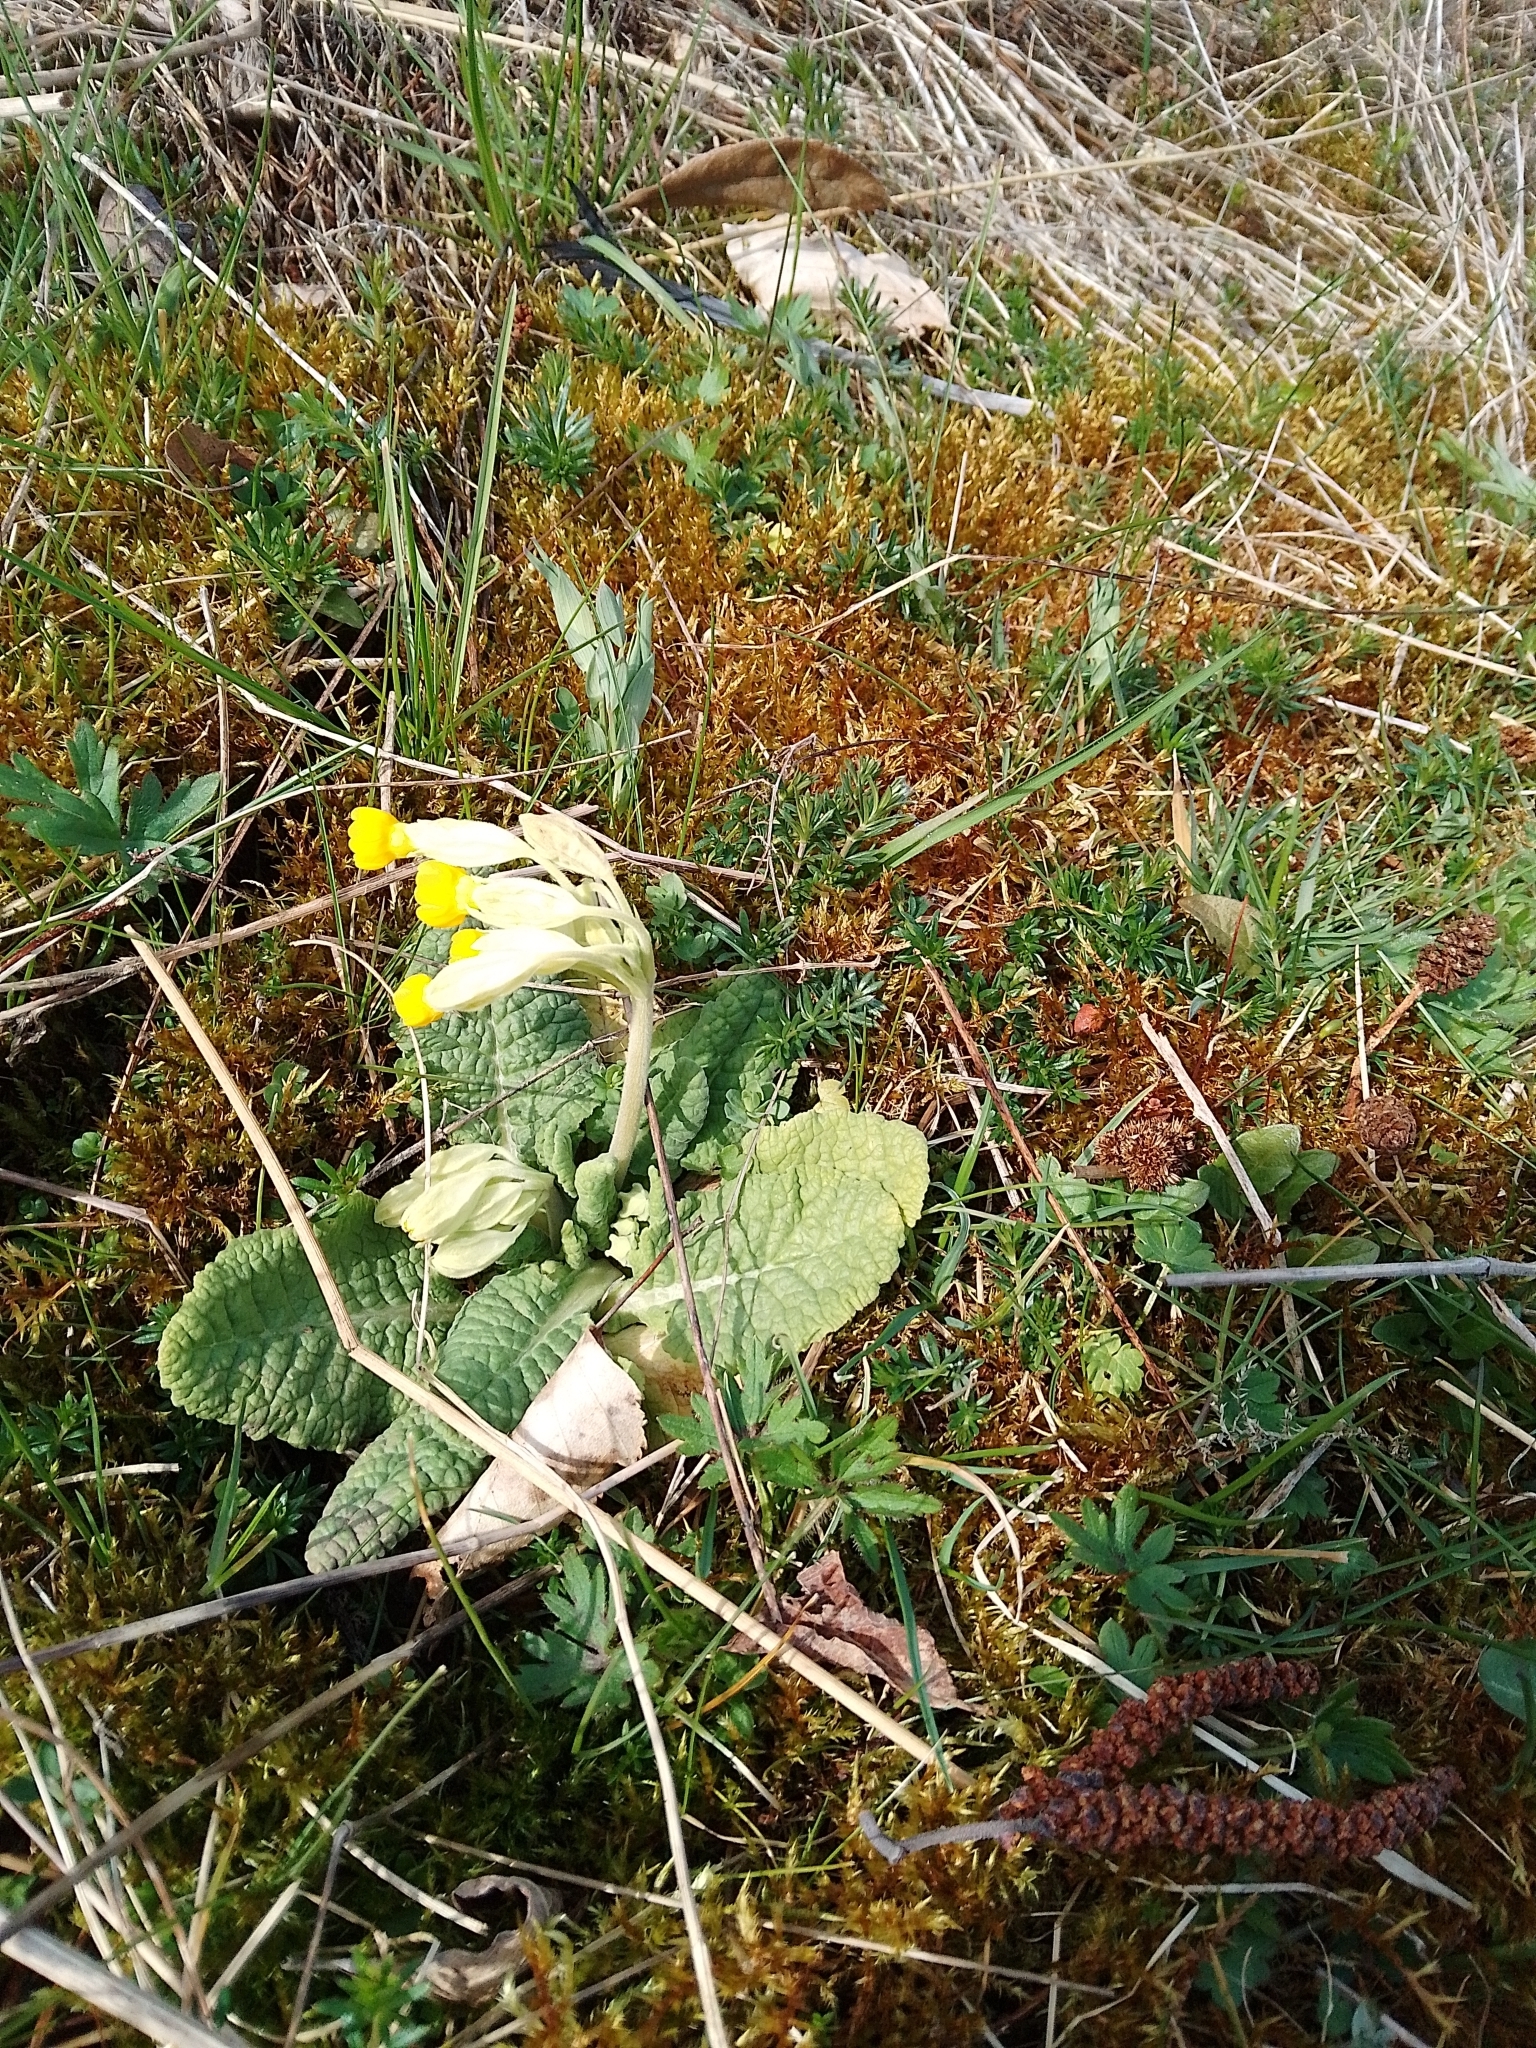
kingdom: Plantae
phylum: Tracheophyta
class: Magnoliopsida
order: Ericales
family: Primulaceae
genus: Primula
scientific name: Primula veris
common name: Cowslip
